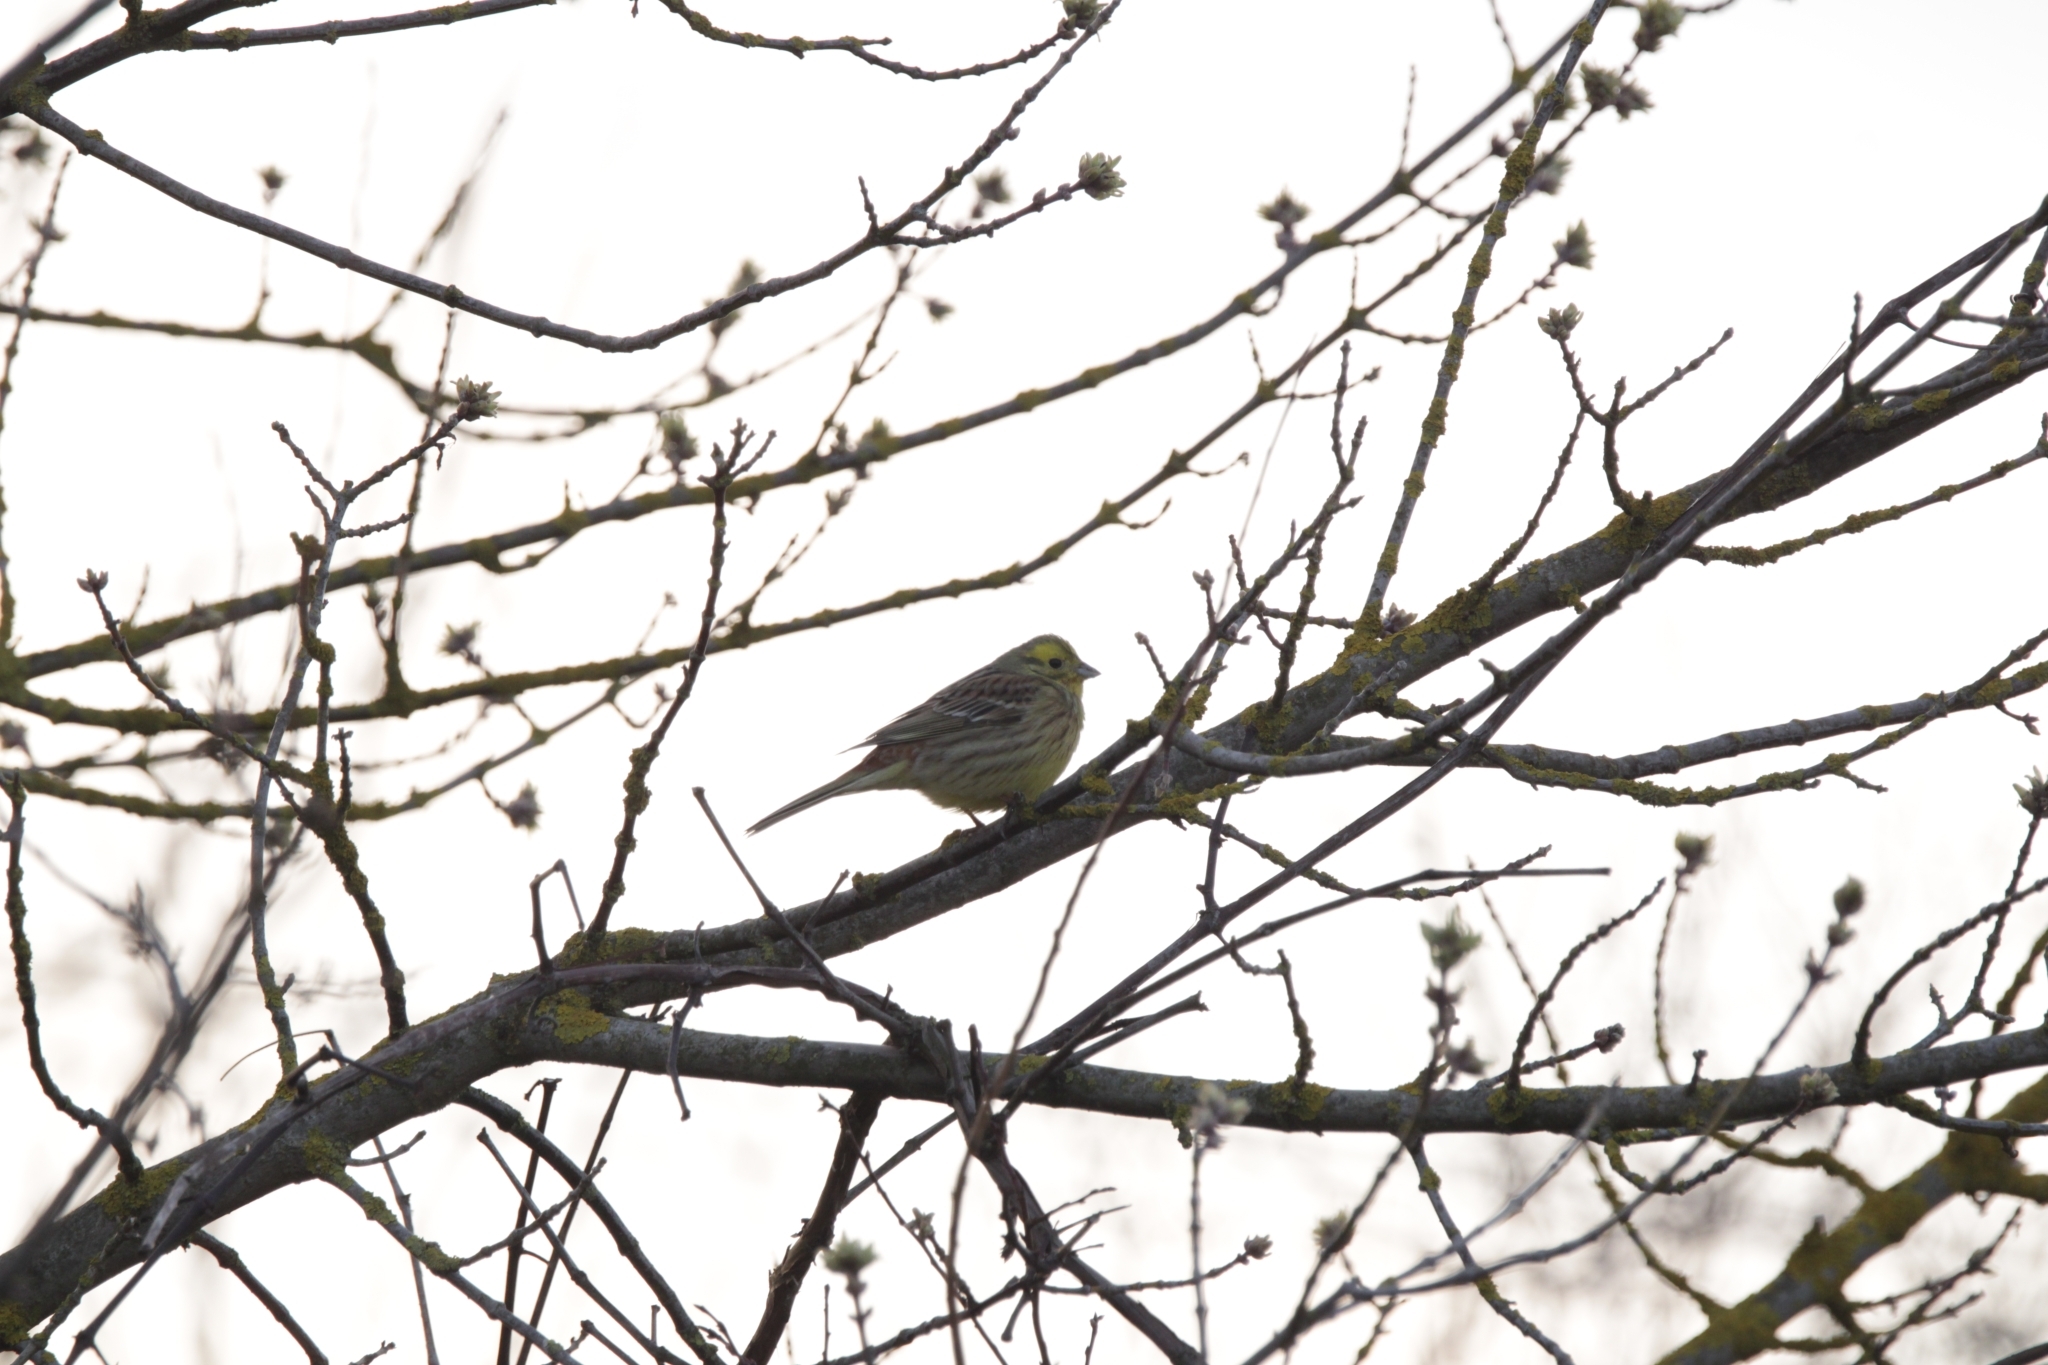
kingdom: Animalia
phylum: Chordata
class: Aves
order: Passeriformes
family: Emberizidae
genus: Emberiza
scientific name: Emberiza citrinella
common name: Yellowhammer
